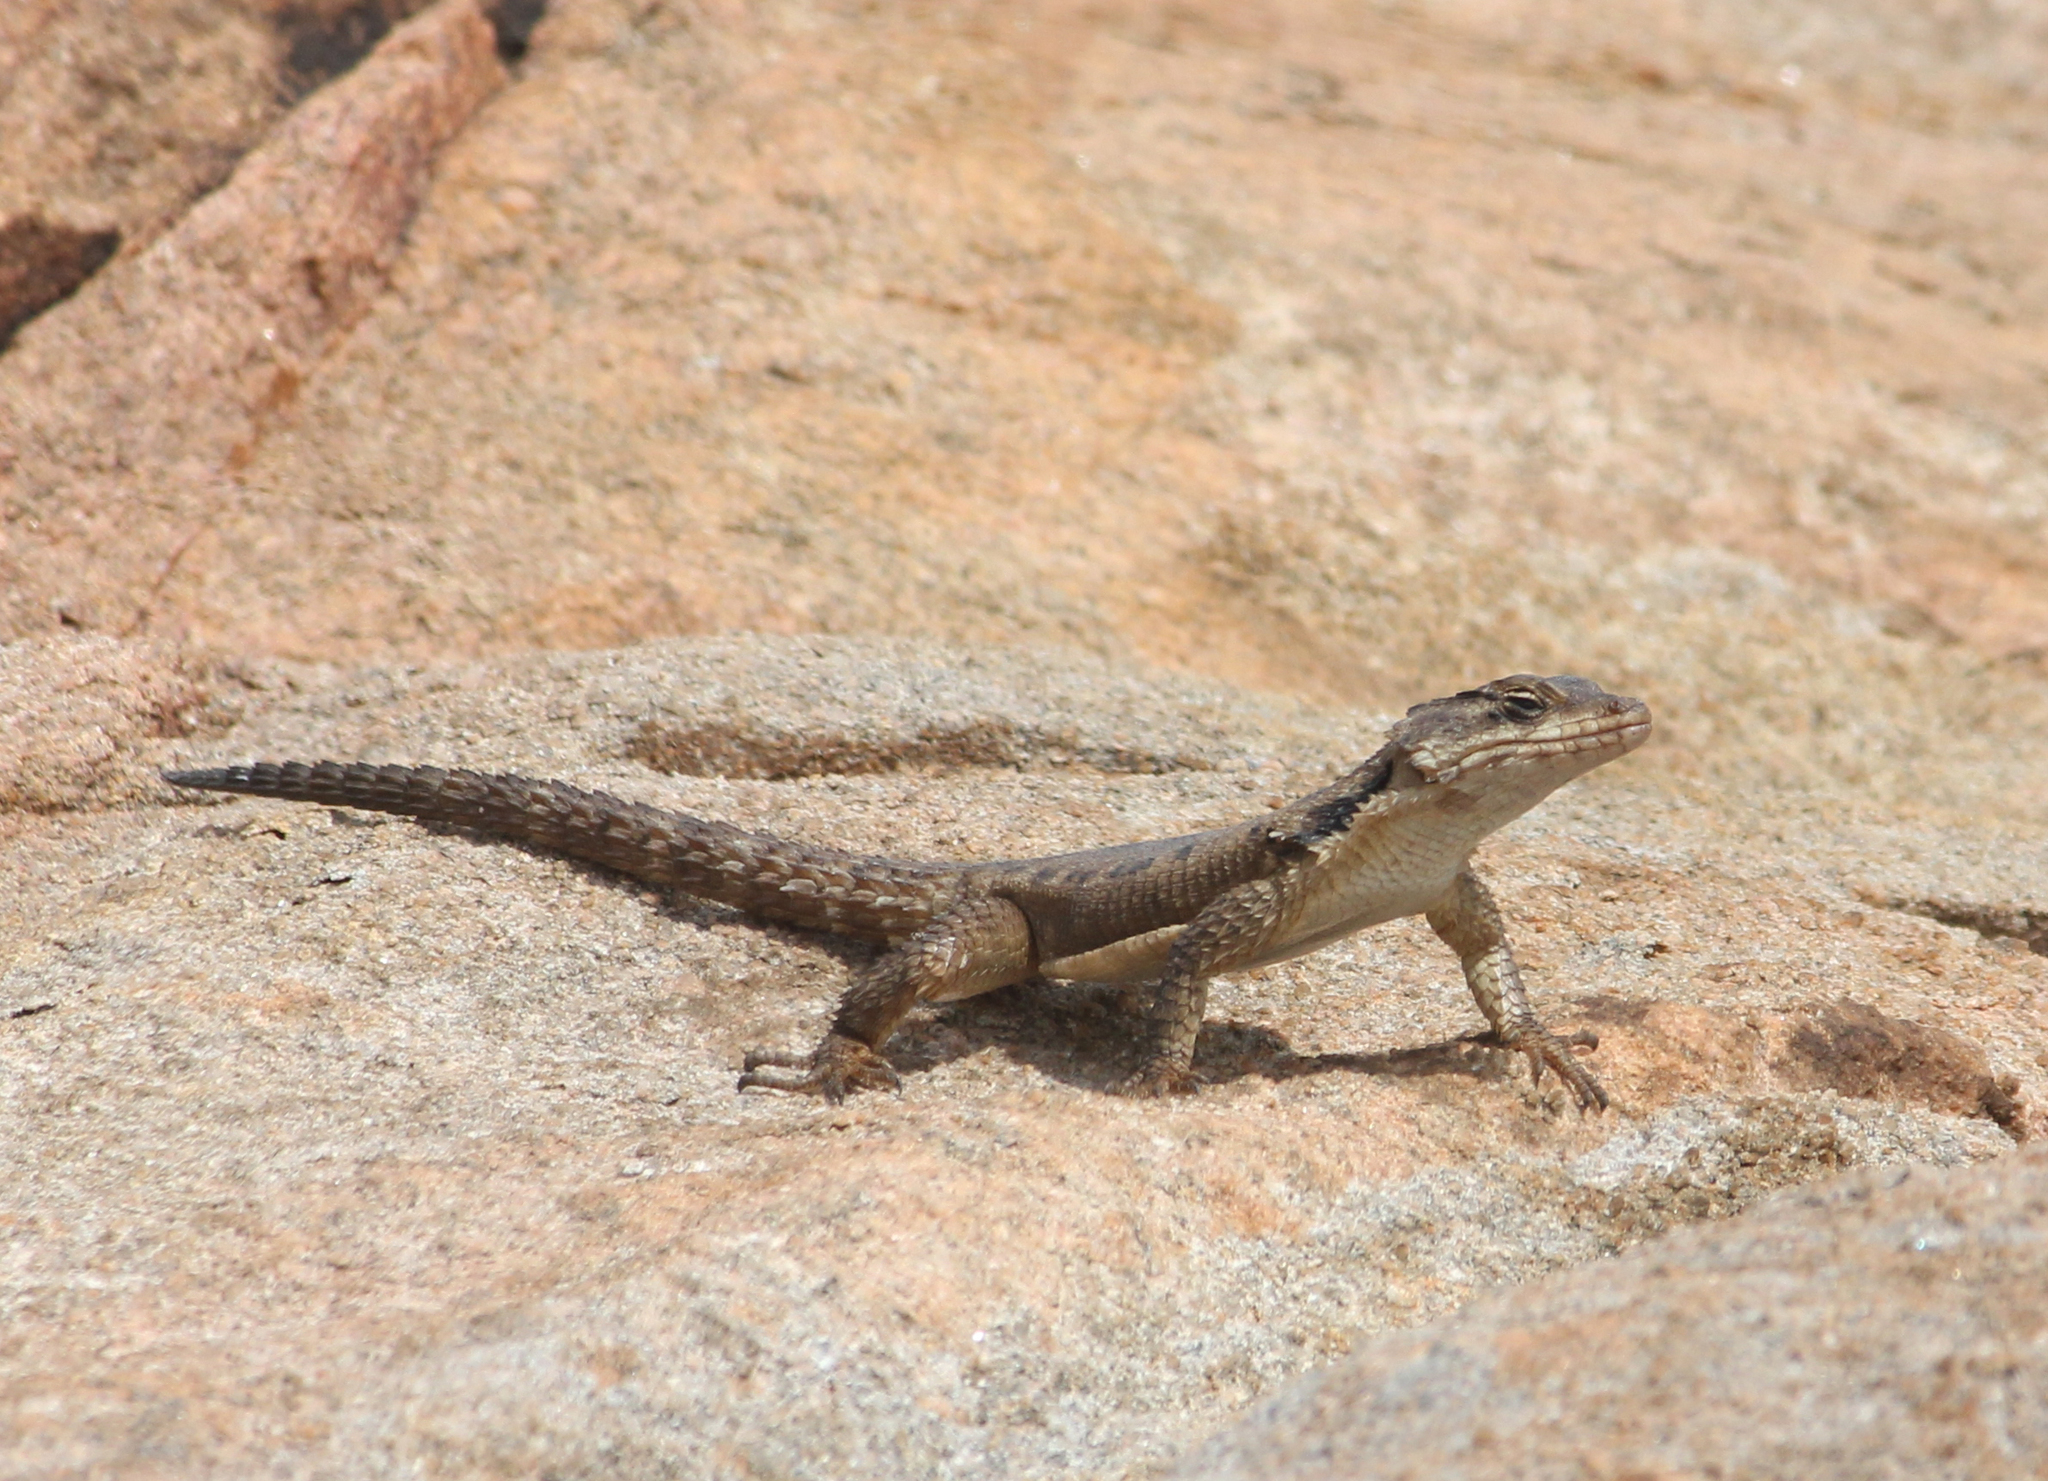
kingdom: Animalia
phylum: Chordata
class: Squamata
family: Cordylidae
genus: Karusasaurus
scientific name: Karusasaurus polyzonus
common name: Karoo girdled lizard
